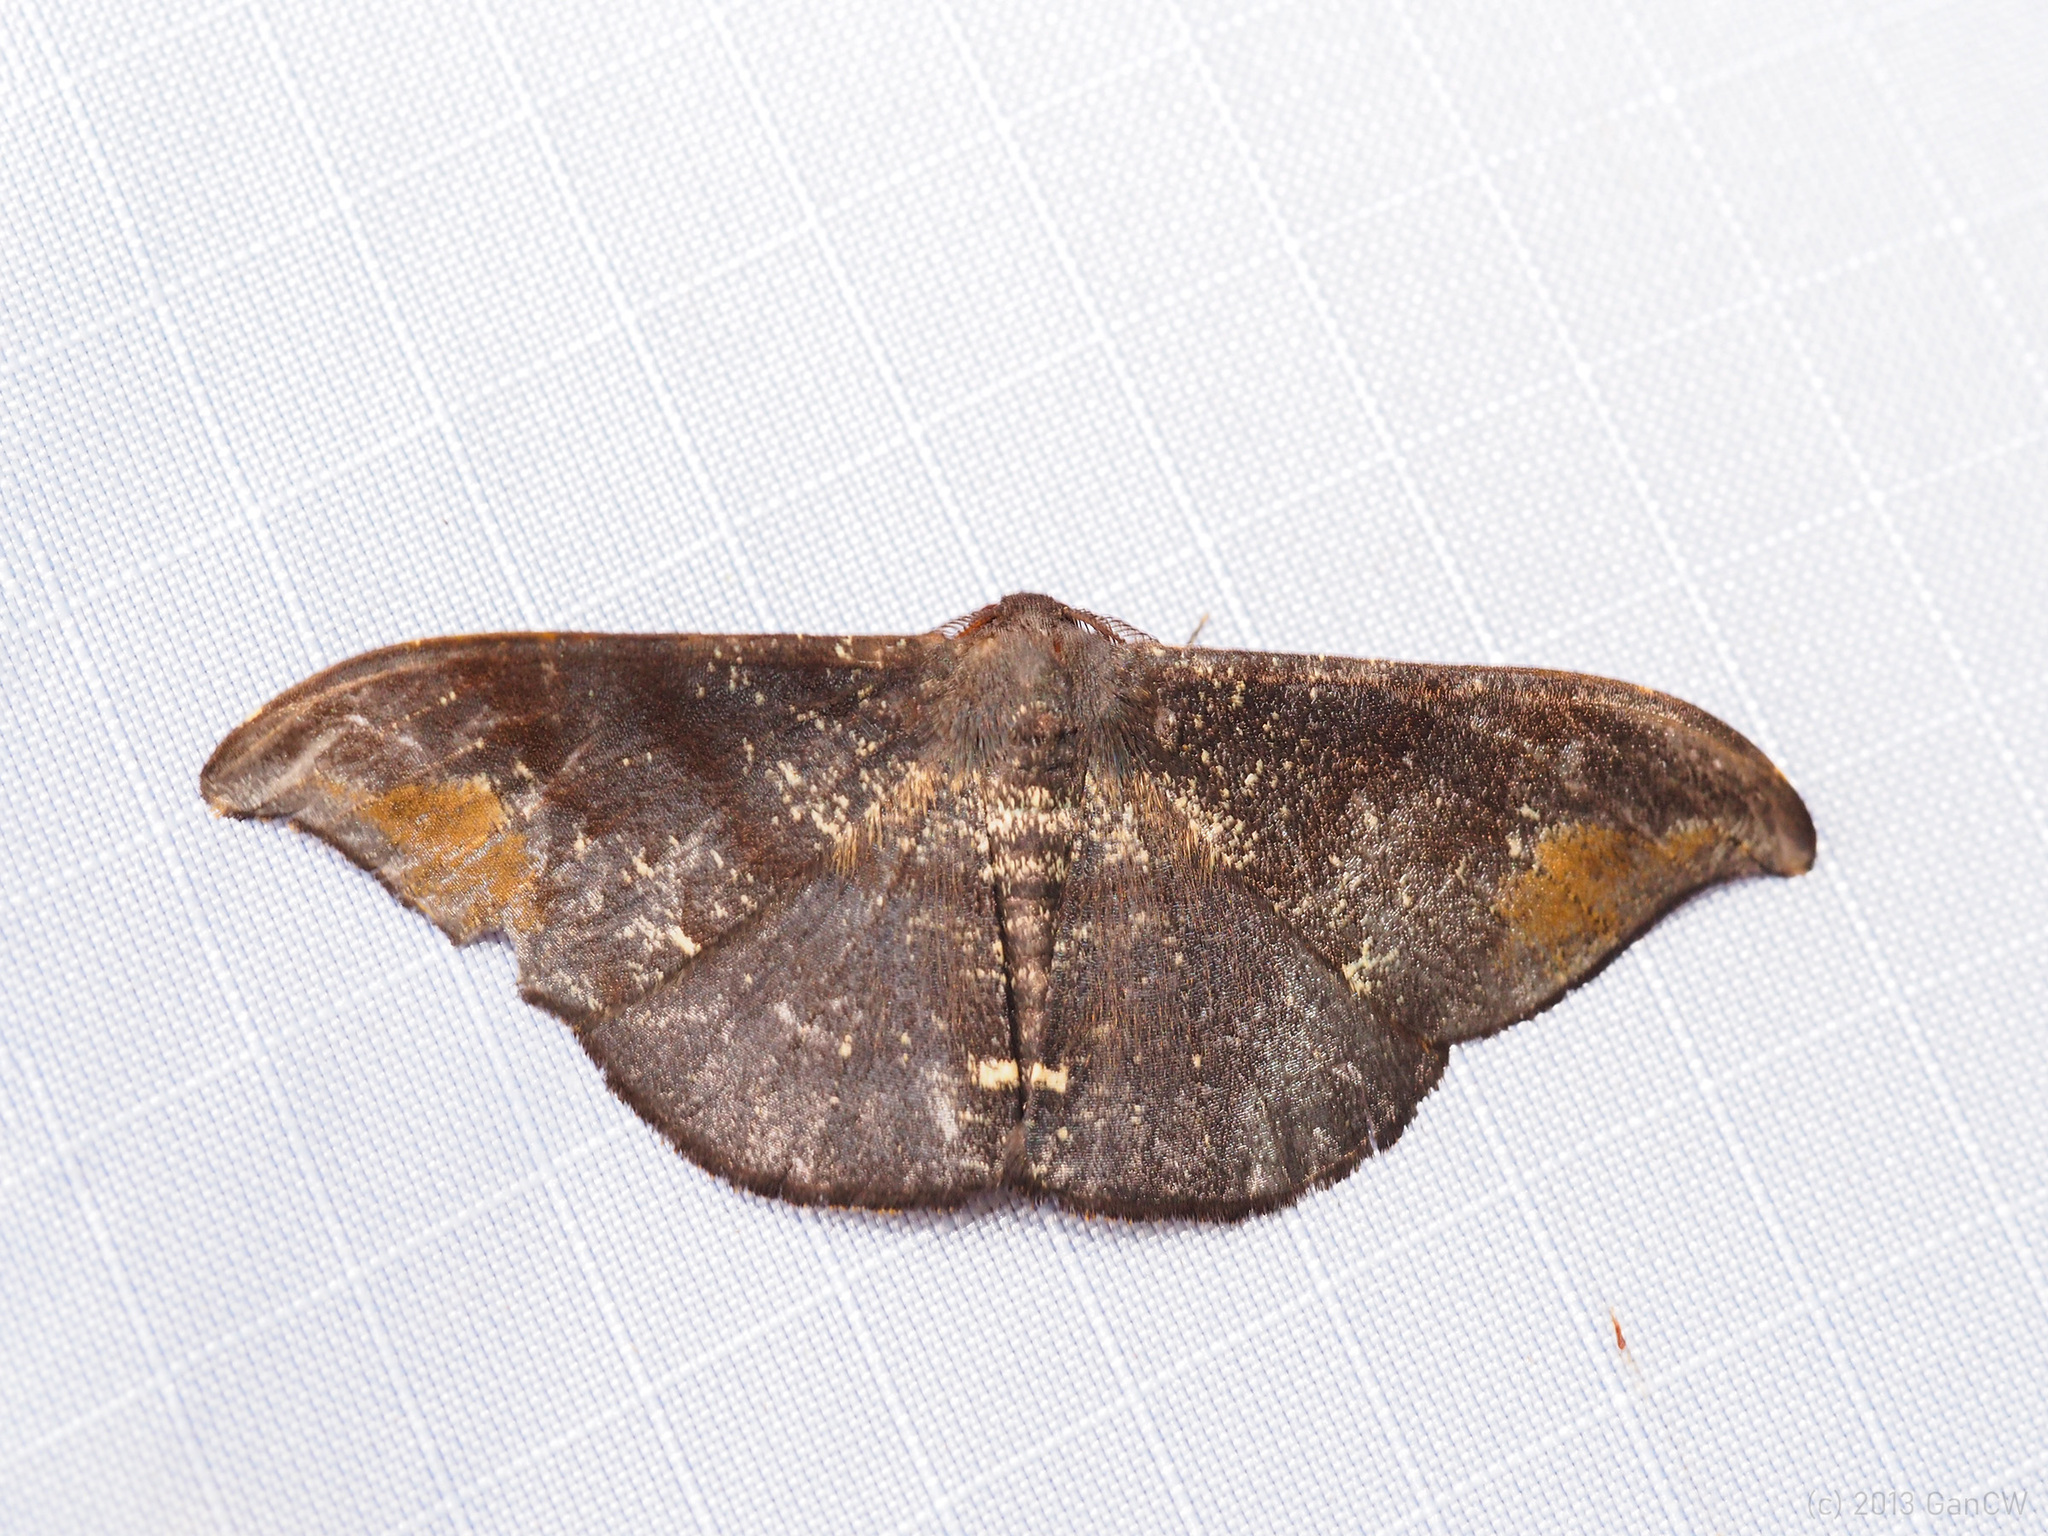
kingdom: Animalia
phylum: Arthropoda
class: Insecta
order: Lepidoptera
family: Geometridae
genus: Hyposidra
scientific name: Hyposidra aquilaria
